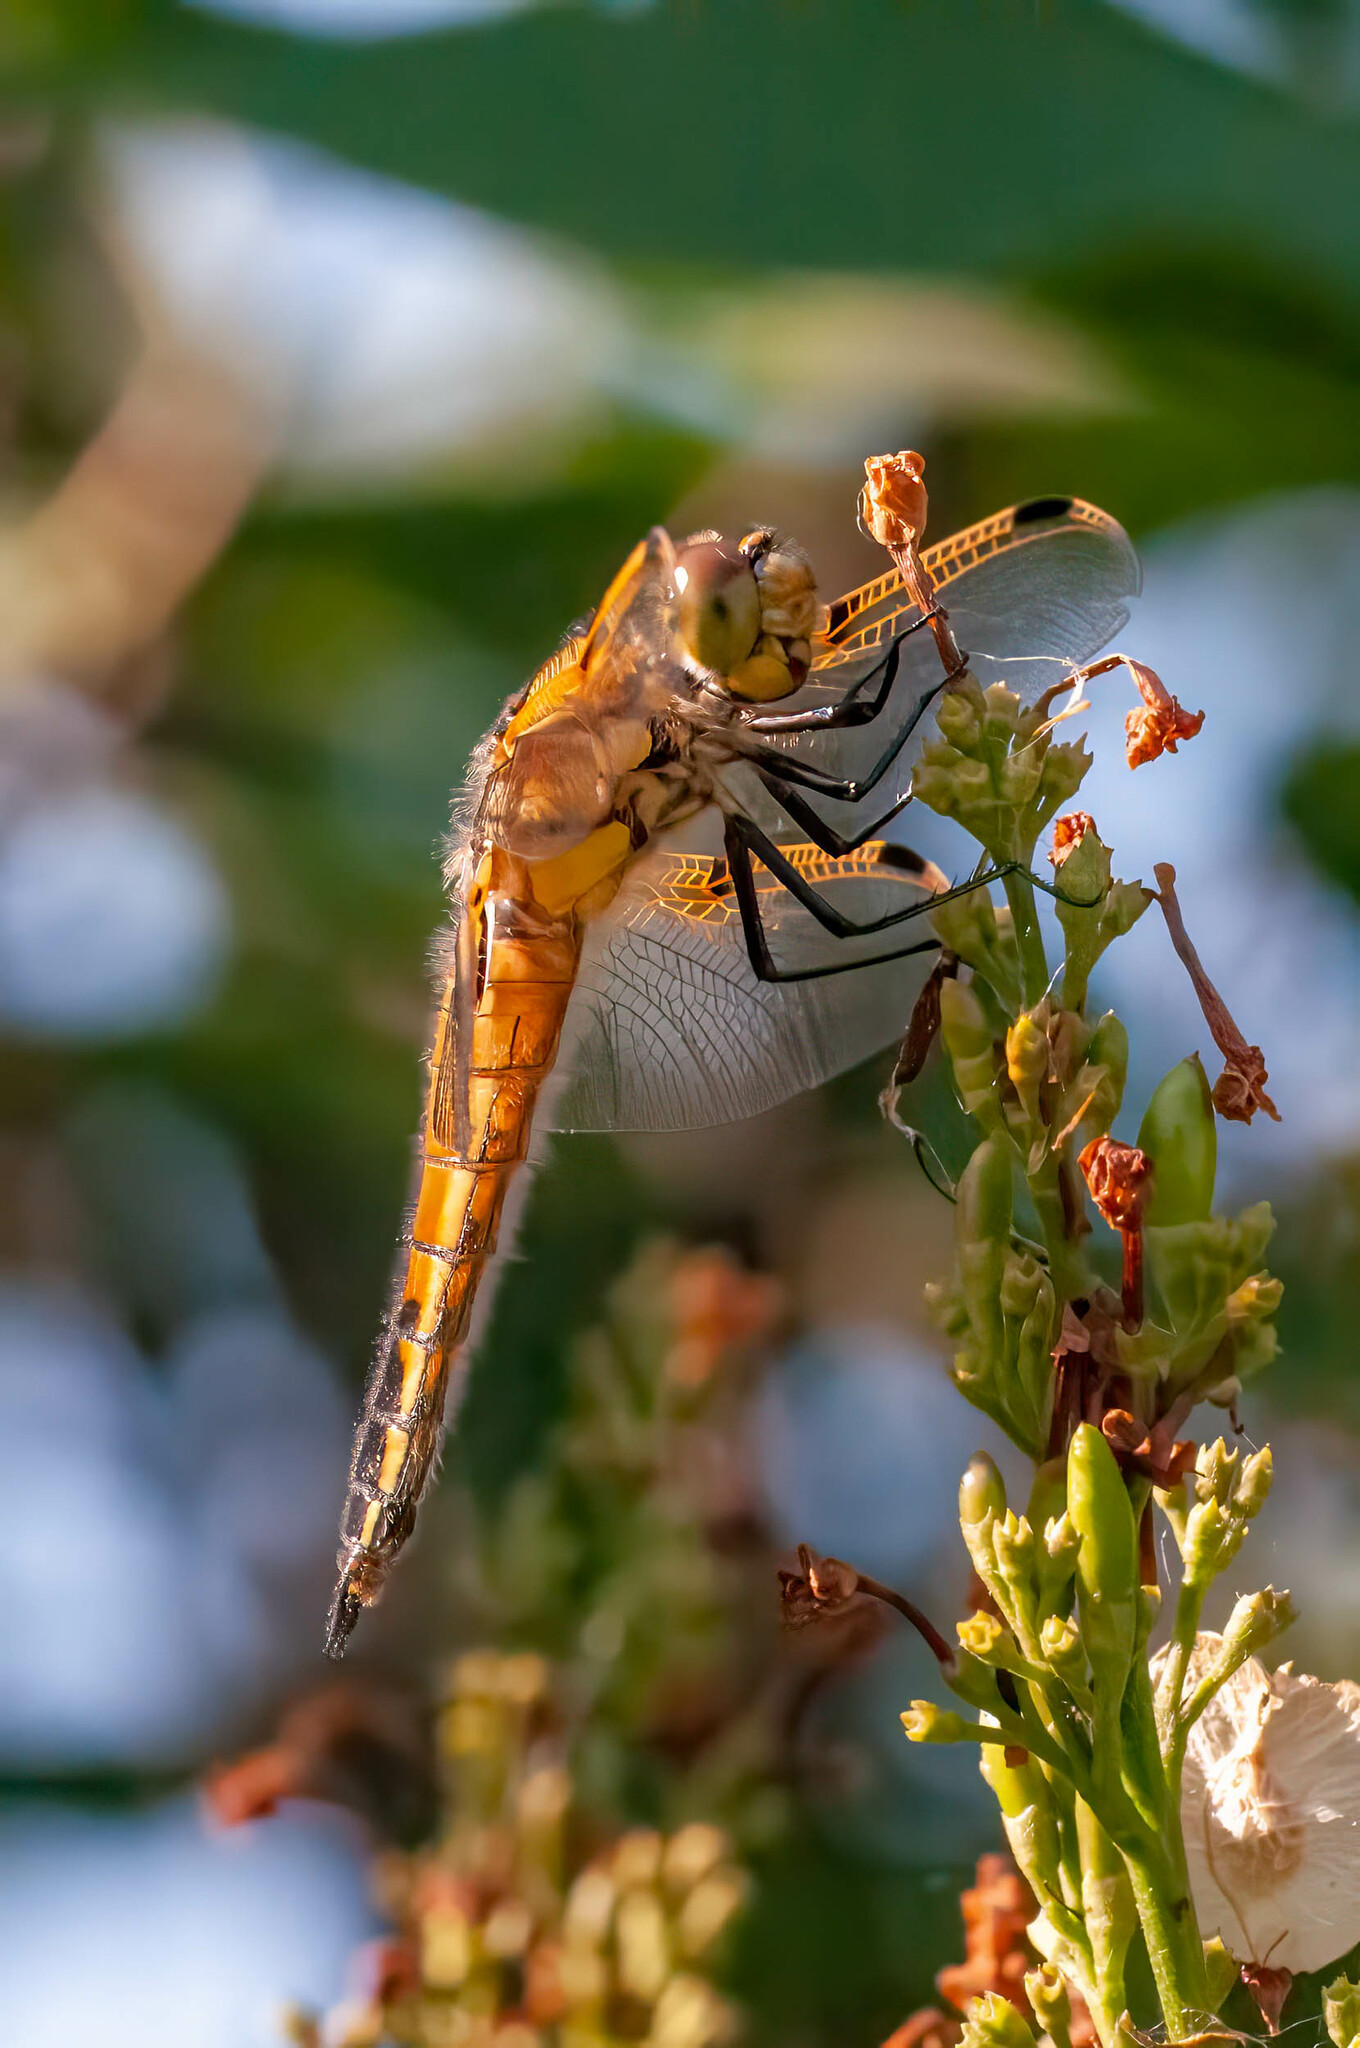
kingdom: Animalia
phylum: Arthropoda
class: Insecta
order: Odonata
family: Libellulidae
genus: Libellula
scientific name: Libellula quadrimaculata
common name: Four-spotted chaser
